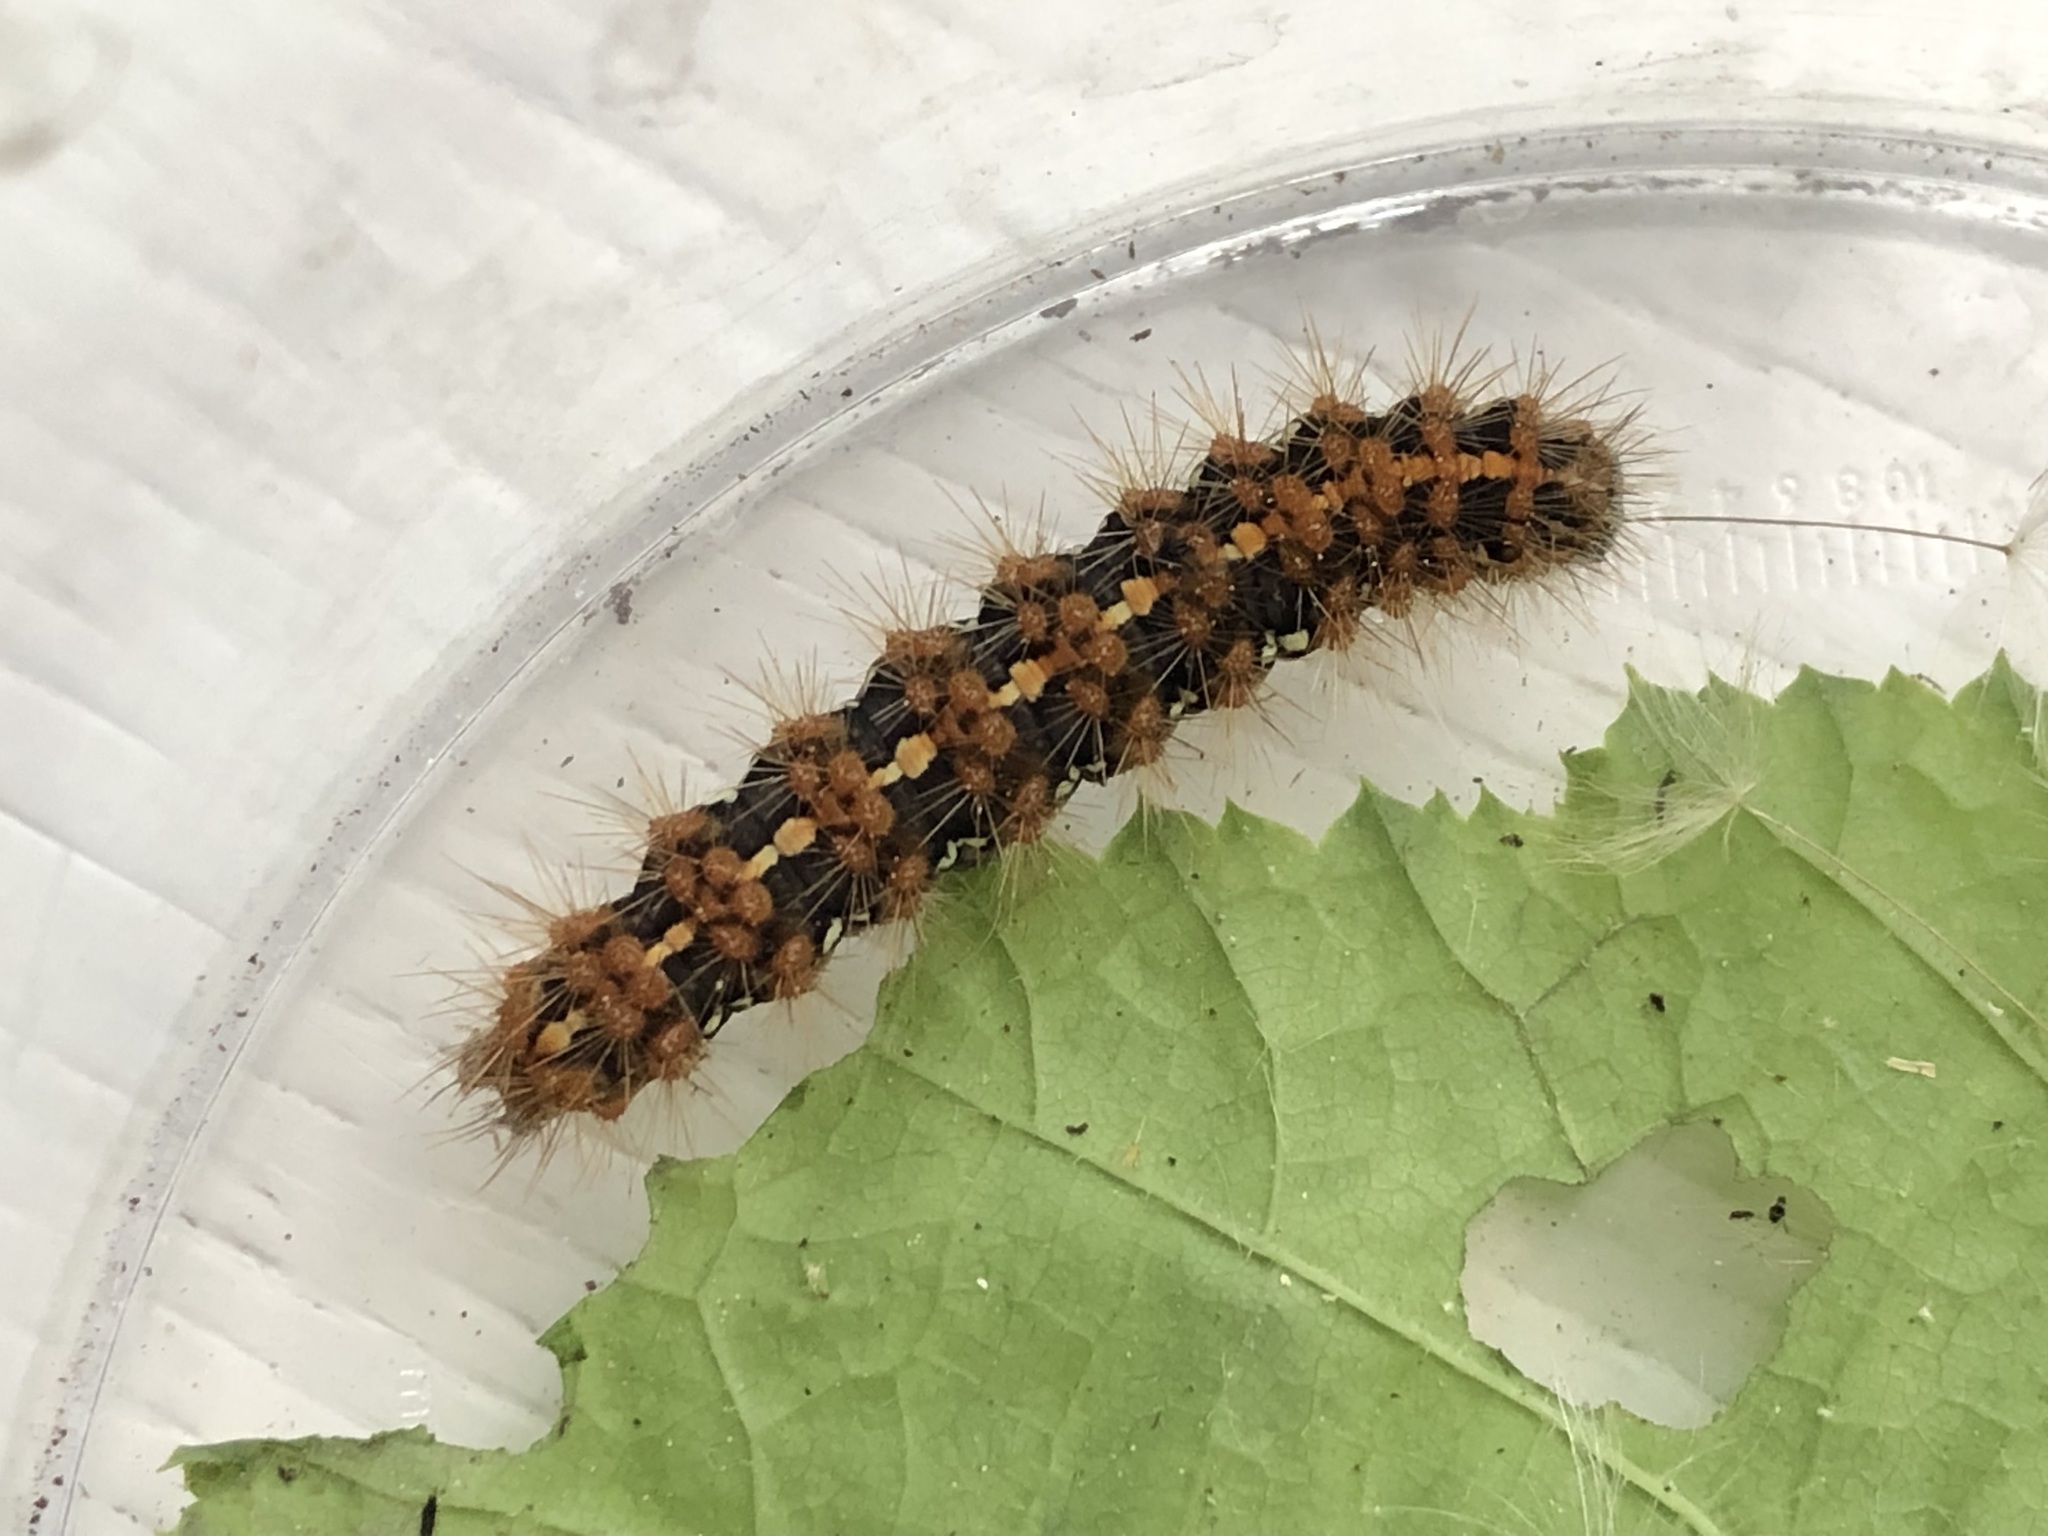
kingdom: Animalia
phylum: Arthropoda
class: Insecta
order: Lepidoptera
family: Erebidae
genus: Euplagia
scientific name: Euplagia quadripunctaria
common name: Jersey tiger
